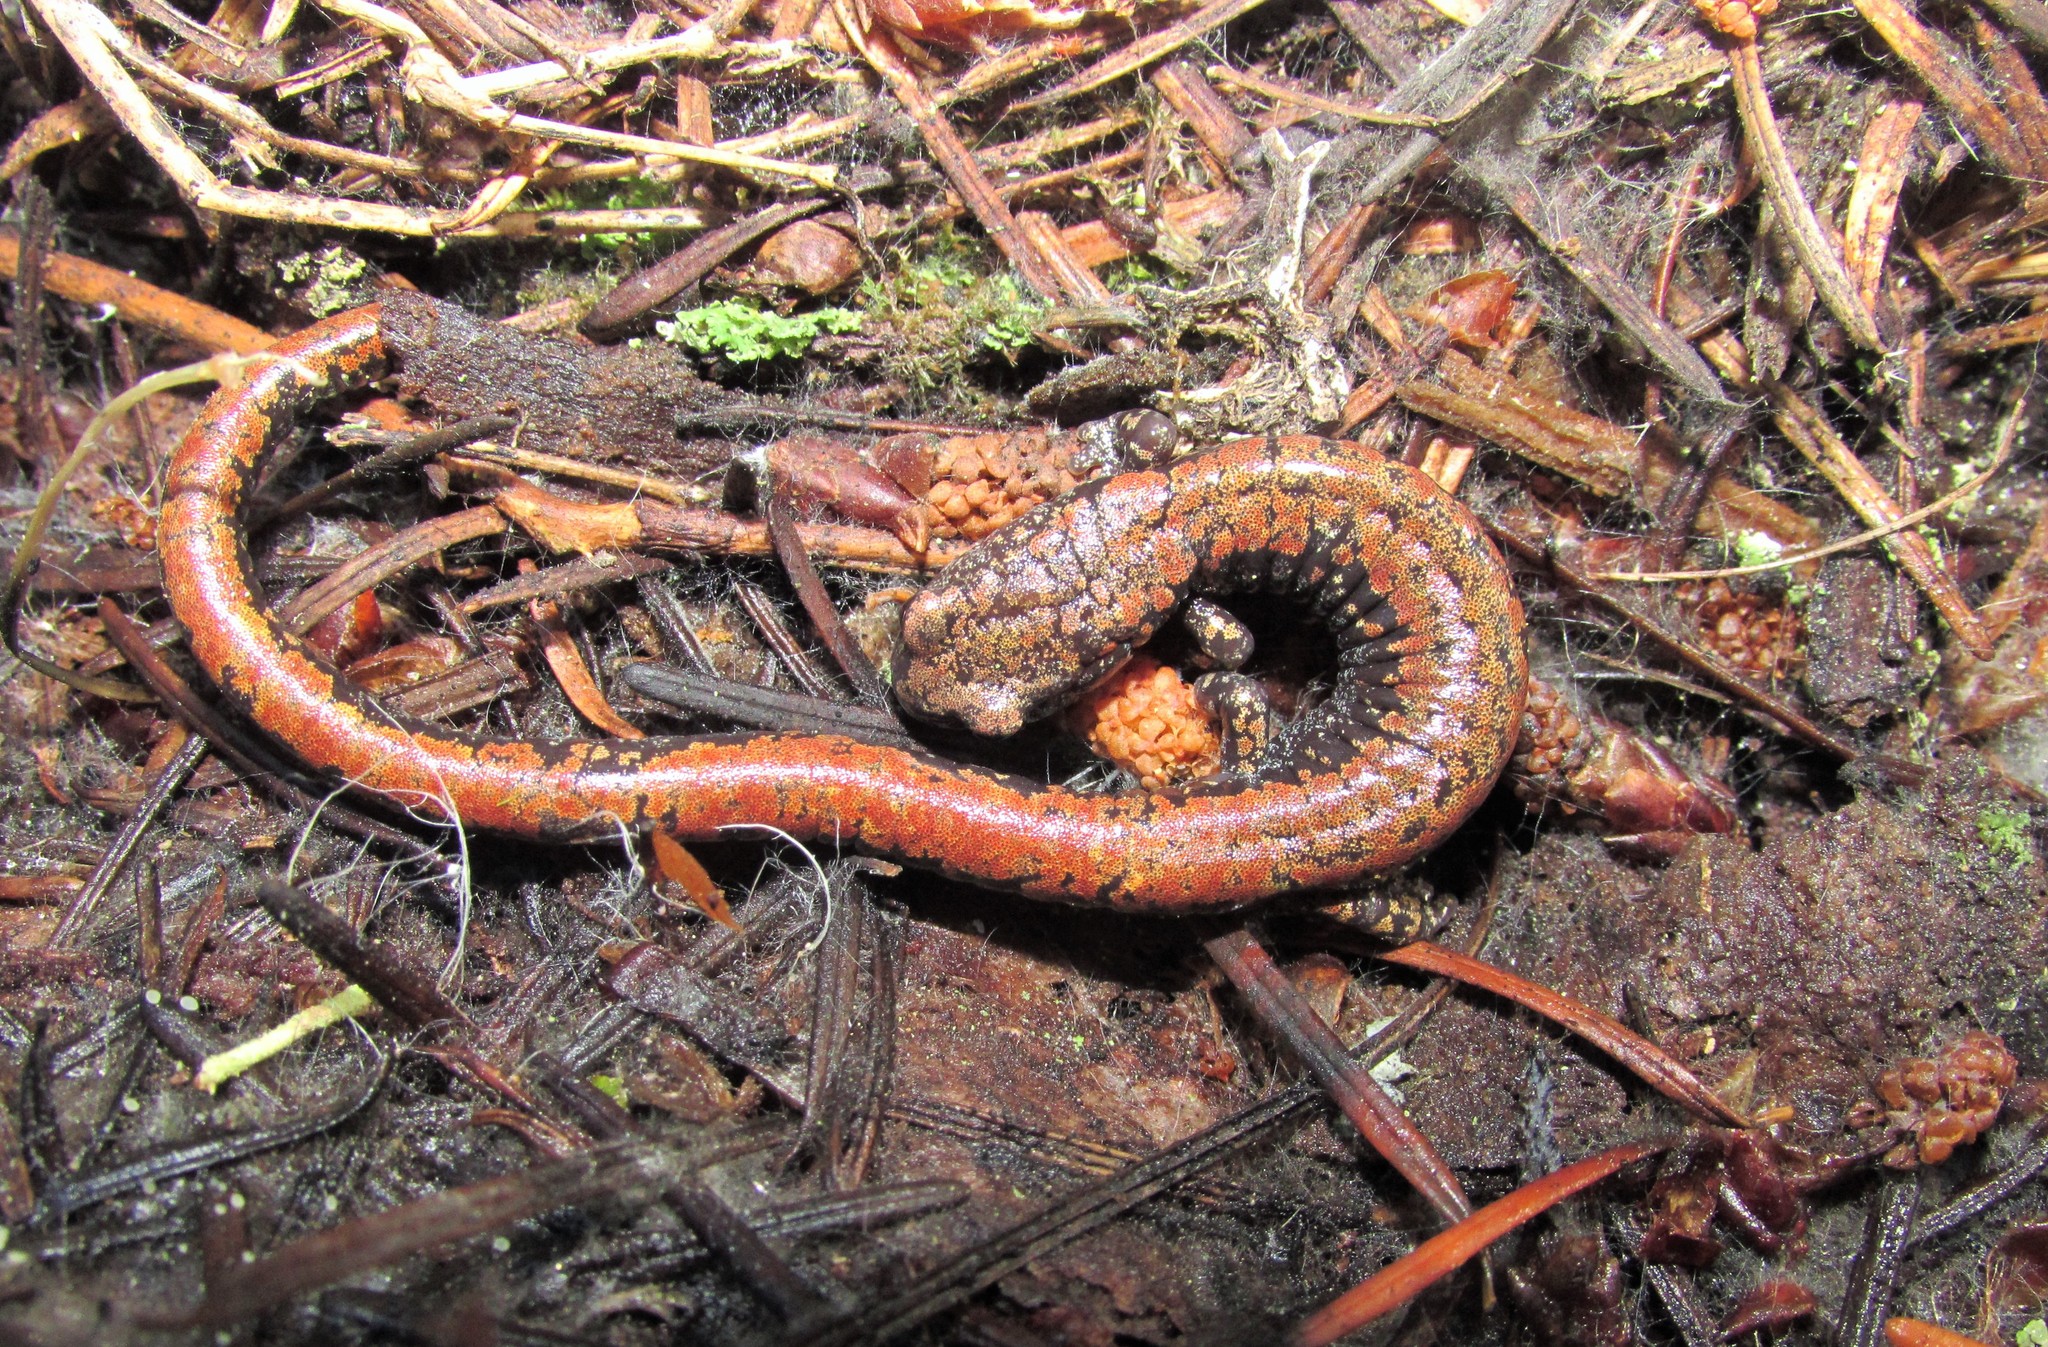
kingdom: Animalia
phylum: Chordata
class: Amphibia
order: Caudata
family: Plethodontidae
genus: Batrachoseps
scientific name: Batrachoseps wrighti
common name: Oregon slender salamander
